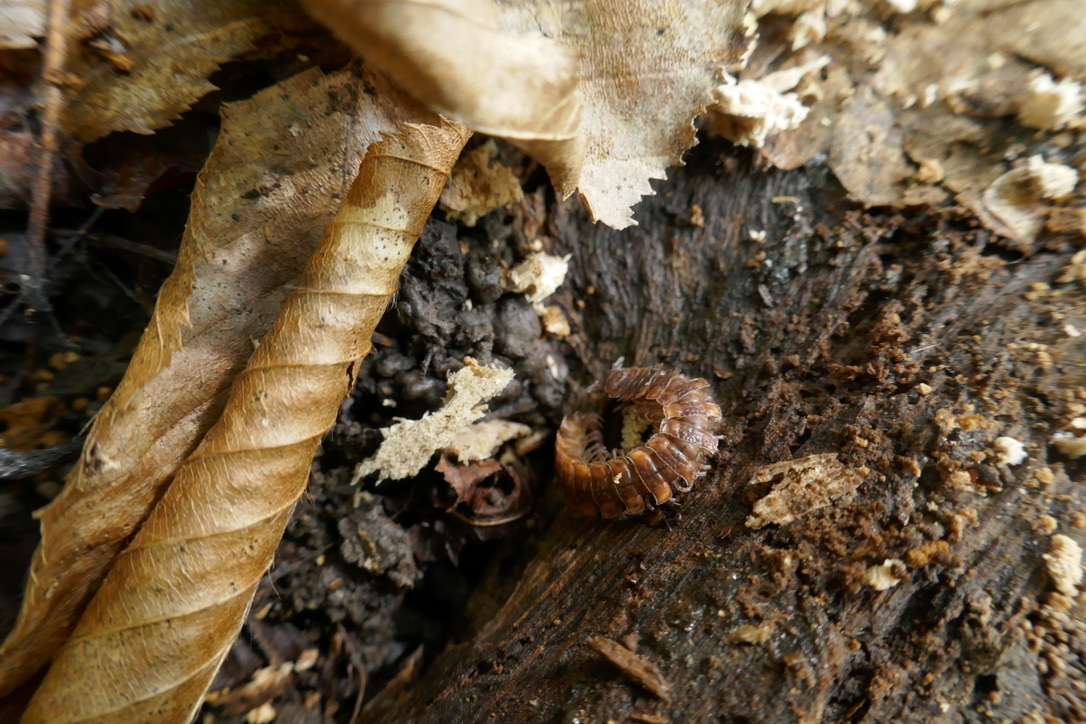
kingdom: Animalia
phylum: Arthropoda
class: Diplopoda
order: Polydesmida
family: Polydesmidae
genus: Polydesmus
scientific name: Polydesmus complanatus
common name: Flat-backed millipede
